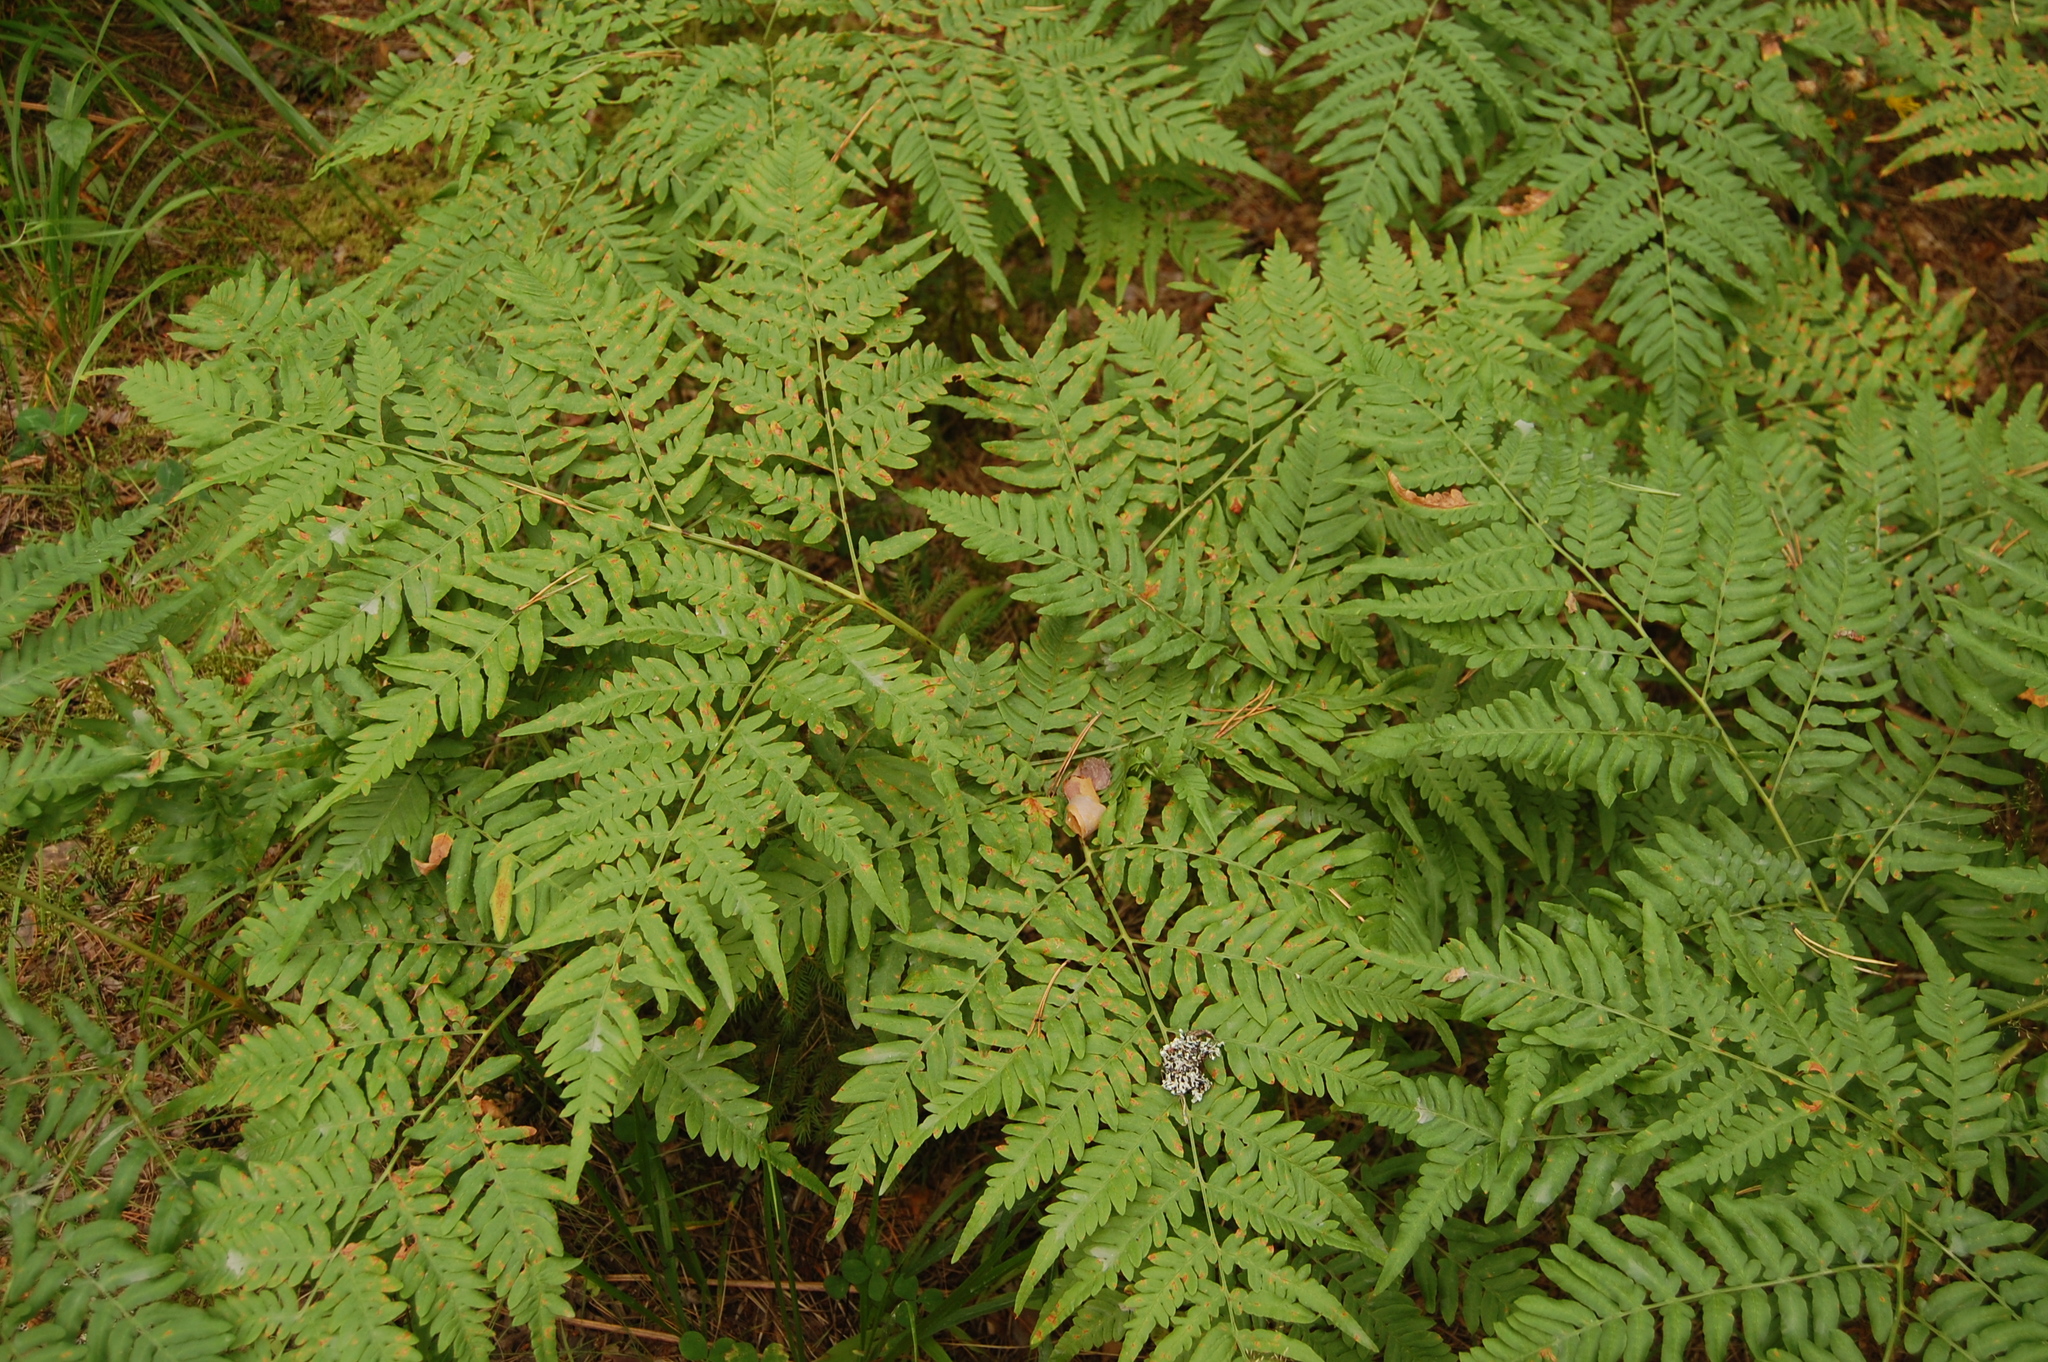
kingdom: Plantae
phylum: Tracheophyta
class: Polypodiopsida
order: Polypodiales
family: Dennstaedtiaceae
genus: Pteridium
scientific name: Pteridium aquilinum
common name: Bracken
